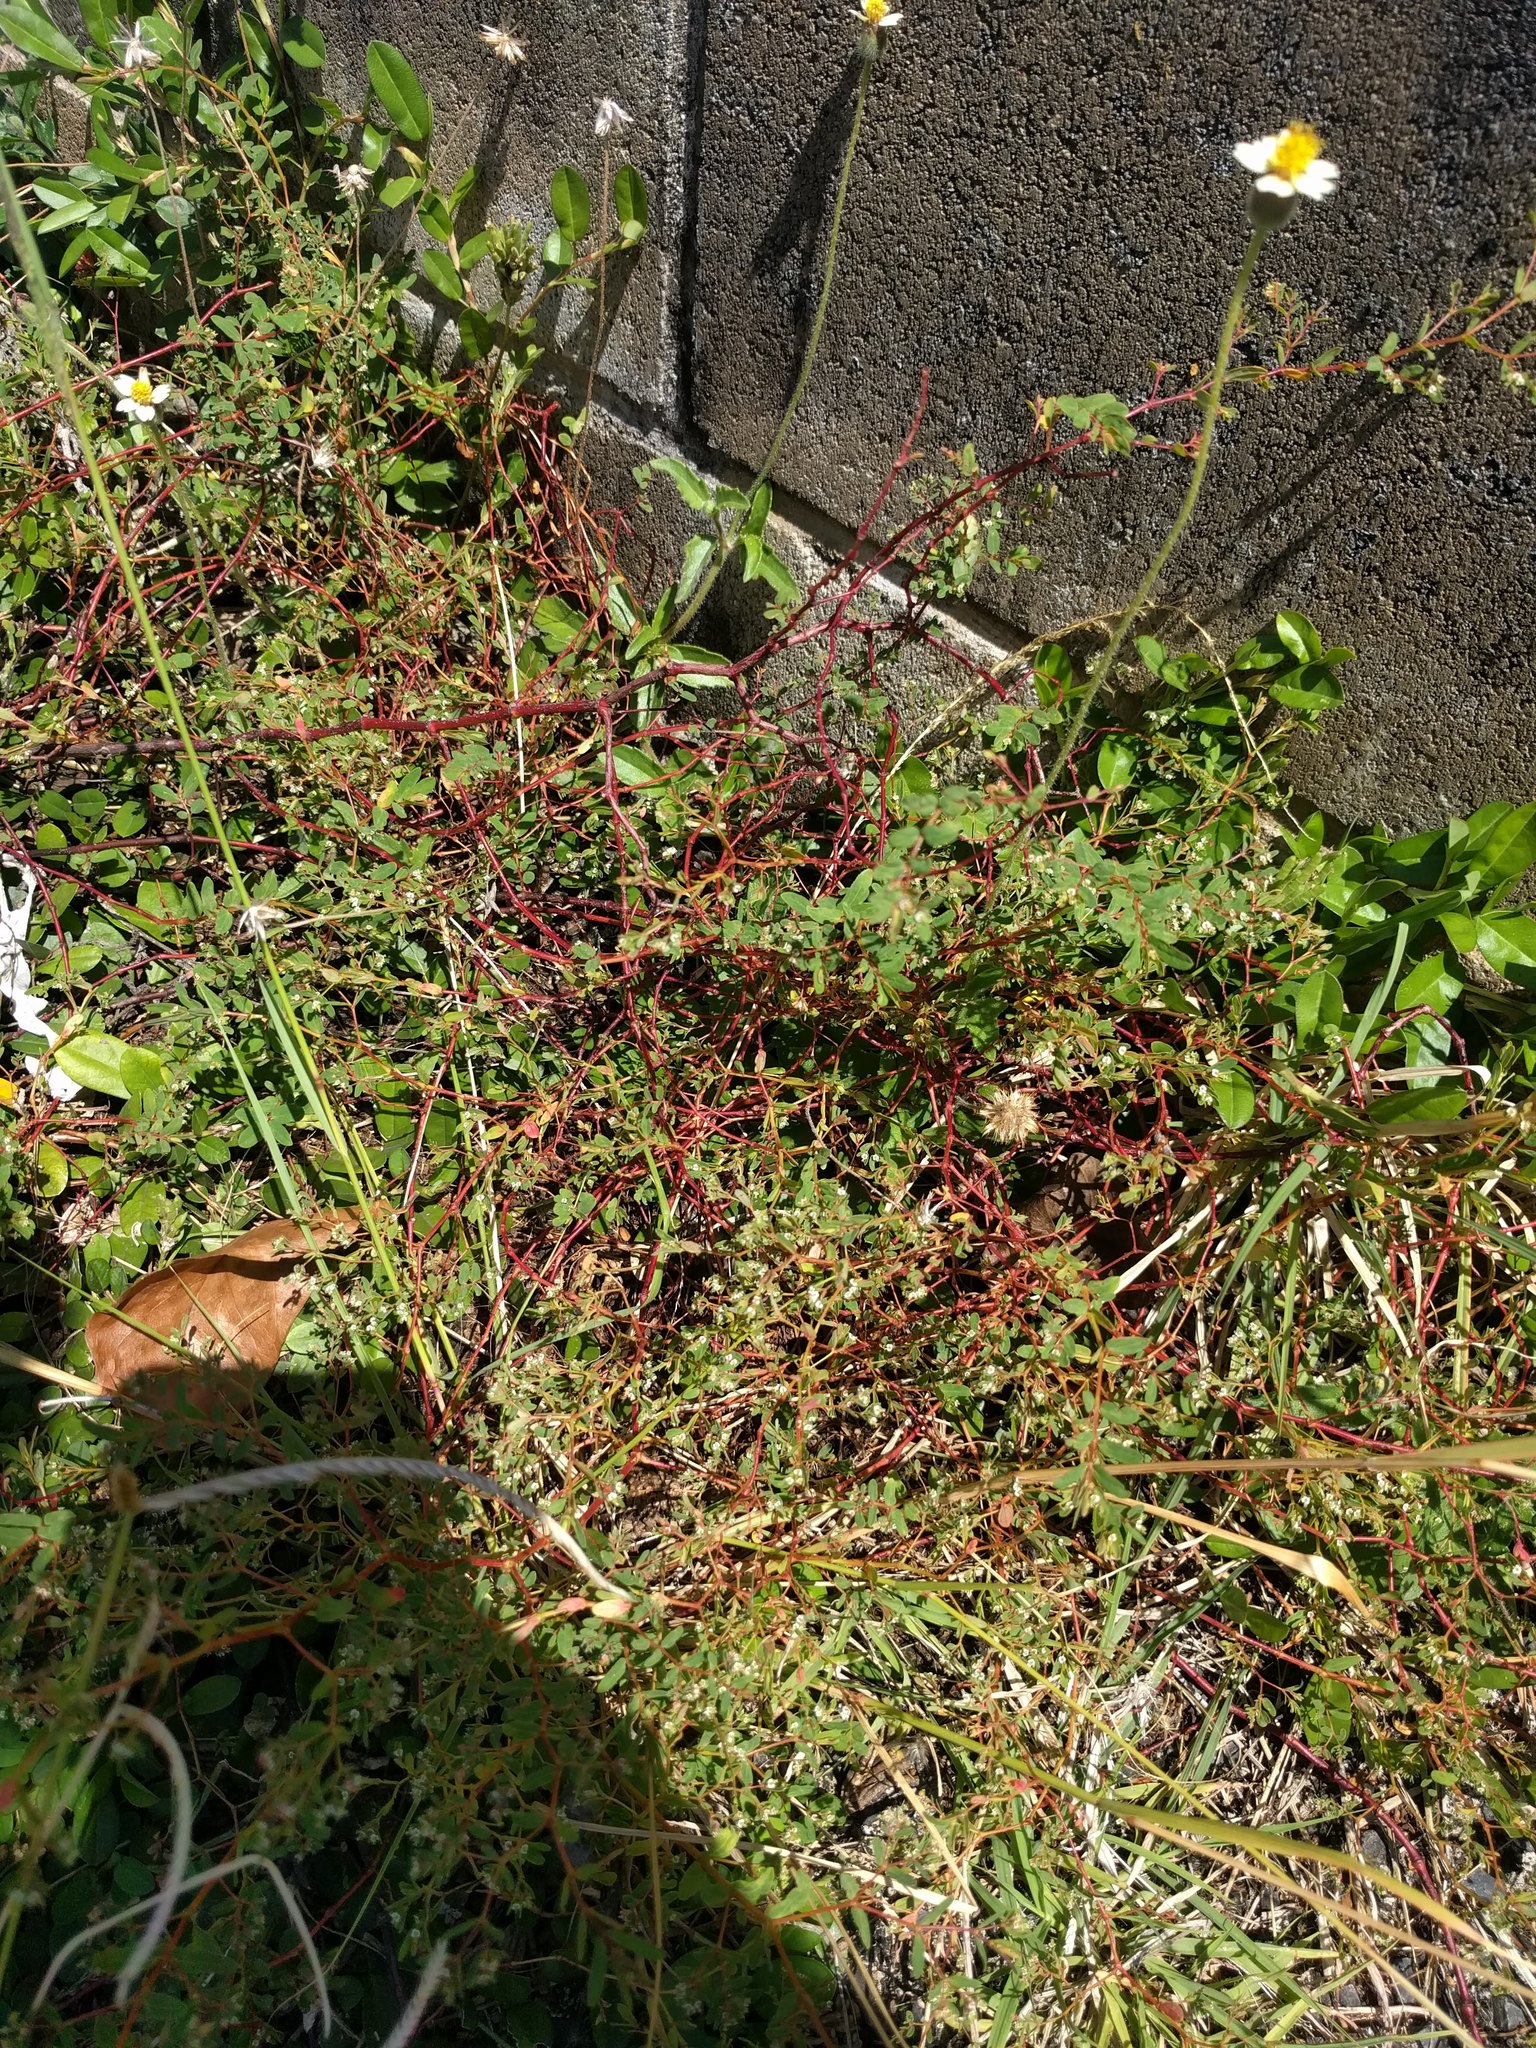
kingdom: Plantae
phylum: Tracheophyta
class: Magnoliopsida
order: Malpighiales
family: Euphorbiaceae
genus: Euphorbia
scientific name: Euphorbia hyssopifolia
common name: Hyssopleaf sandmat
